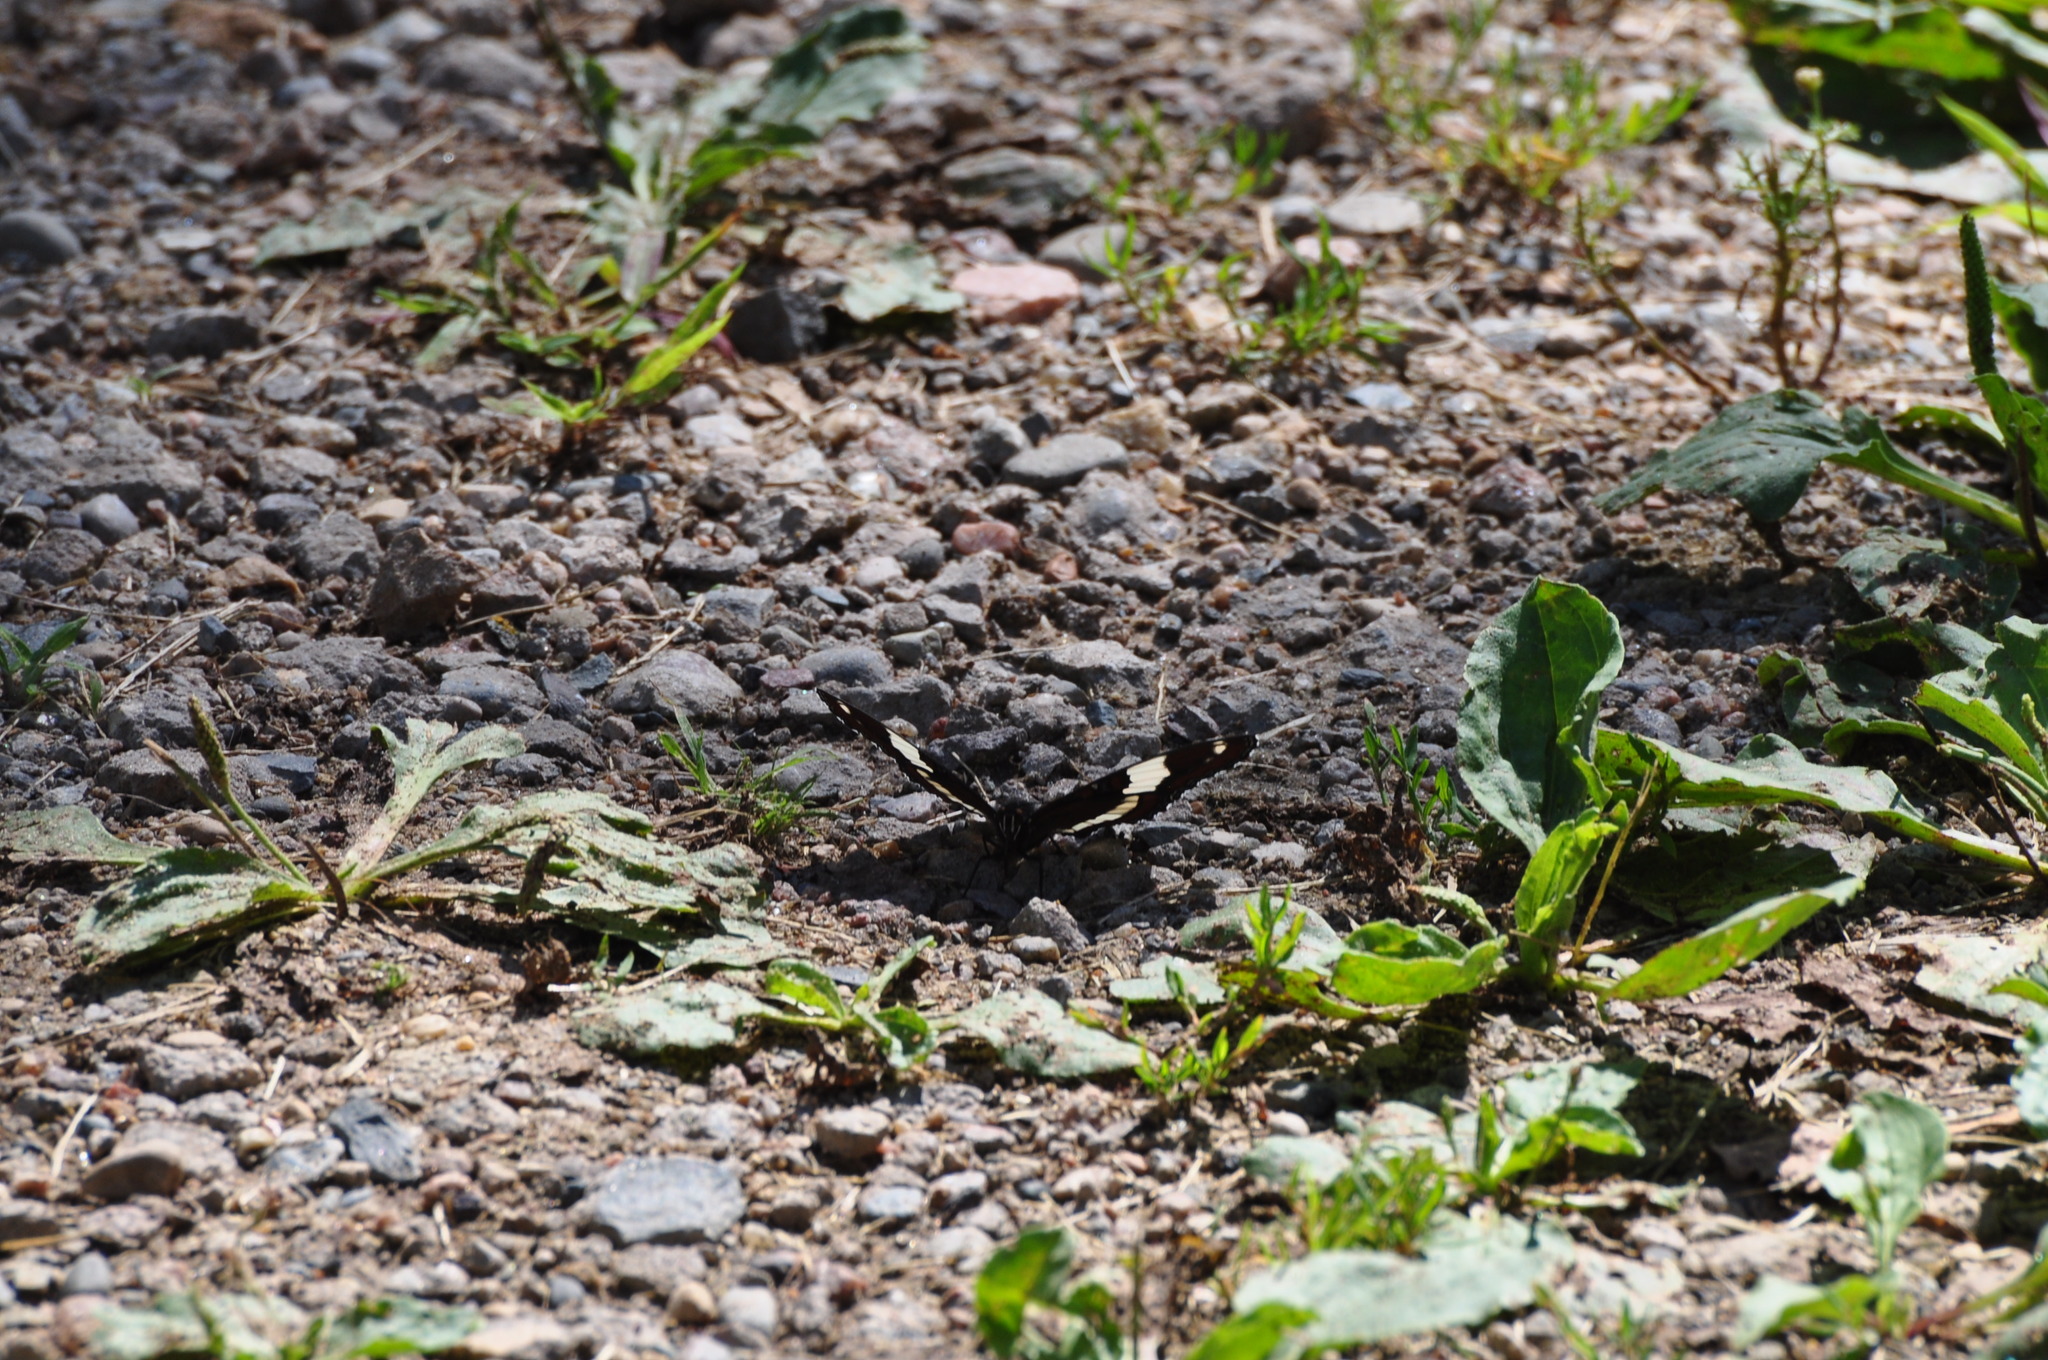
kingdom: Animalia
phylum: Arthropoda
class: Insecta
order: Lepidoptera
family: Nymphalidae
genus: Limenitis
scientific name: Limenitis arthemis
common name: Red-spotted admiral
